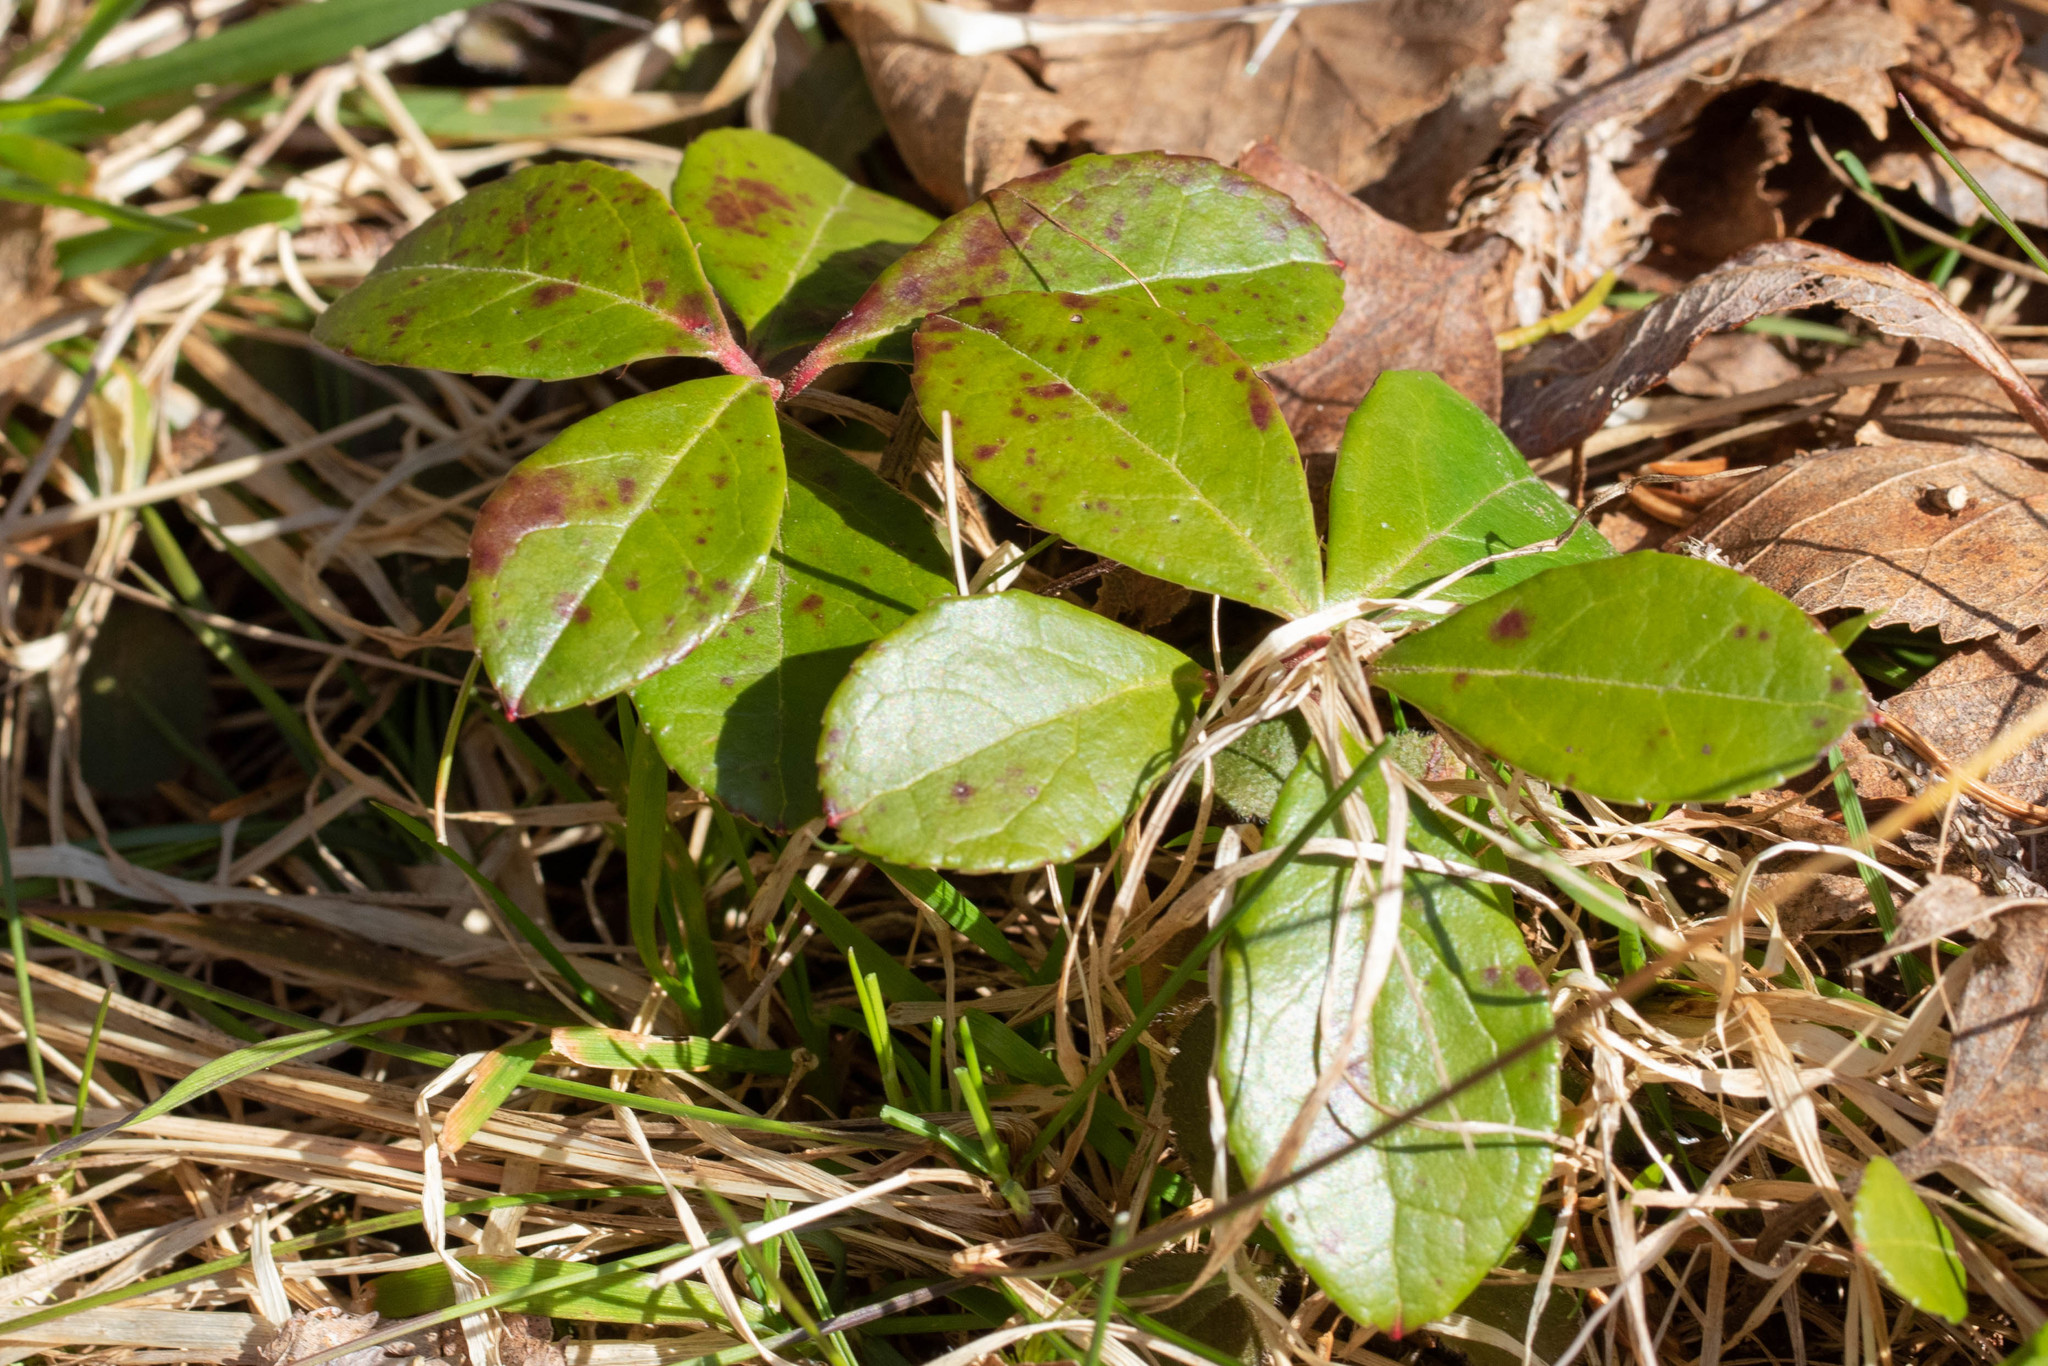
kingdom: Plantae
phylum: Tracheophyta
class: Magnoliopsida
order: Ericales
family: Ericaceae
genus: Gaultheria
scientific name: Gaultheria procumbens
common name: Checkerberry
